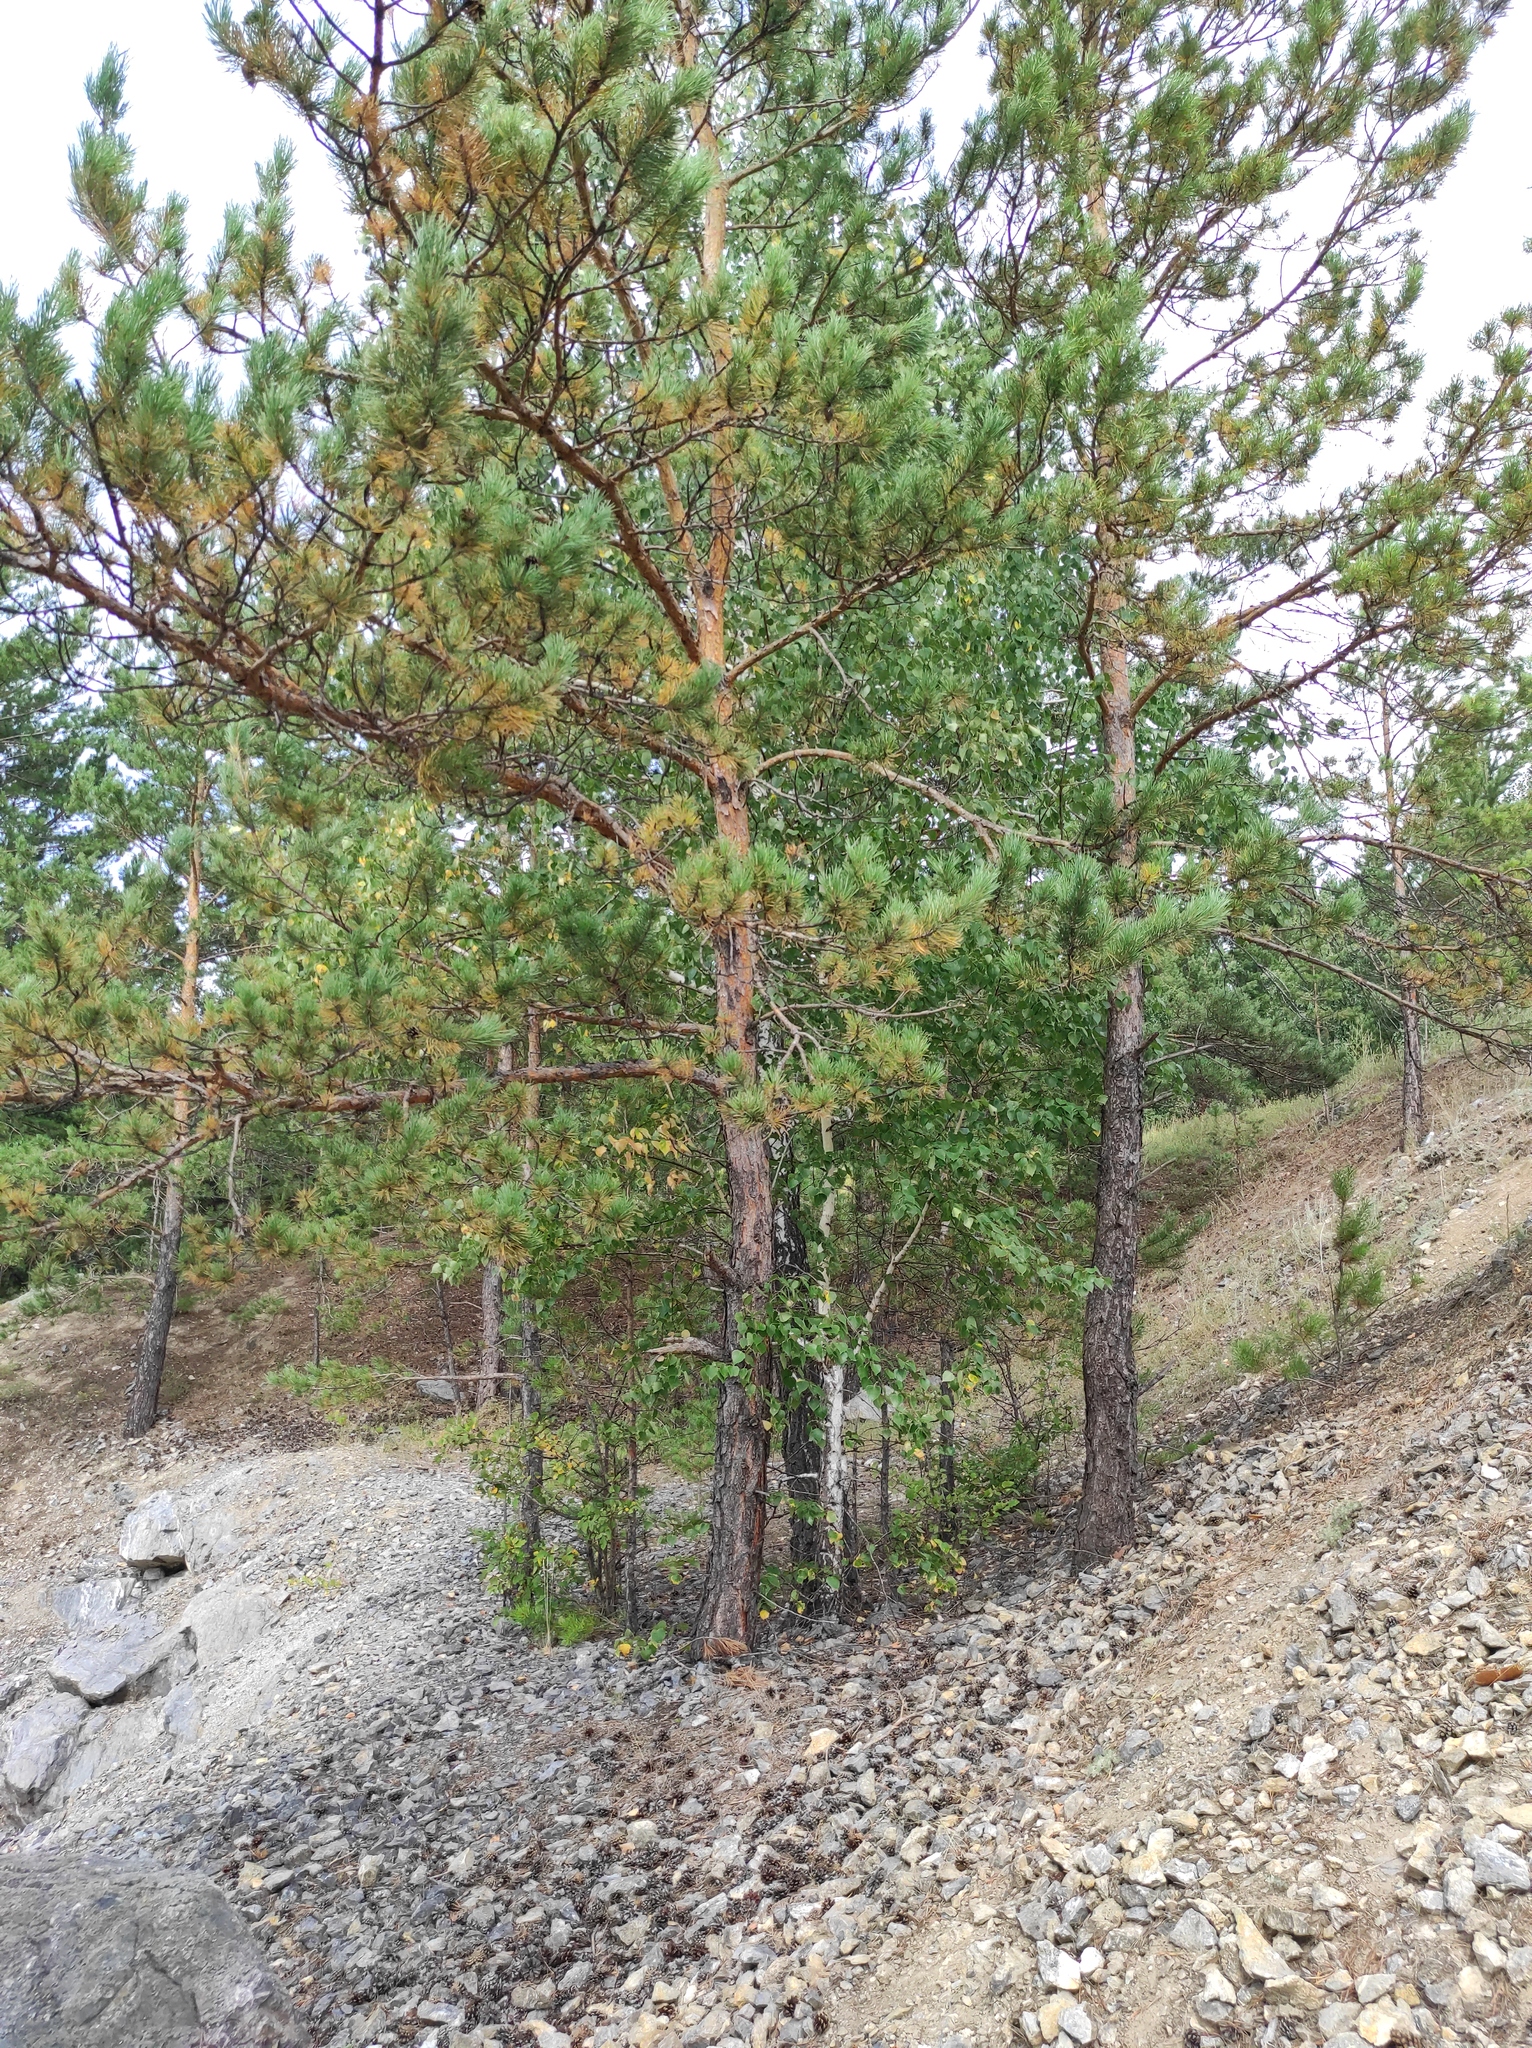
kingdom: Plantae
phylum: Tracheophyta
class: Pinopsida
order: Pinales
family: Pinaceae
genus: Pinus
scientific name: Pinus sylvestris
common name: Scots pine
